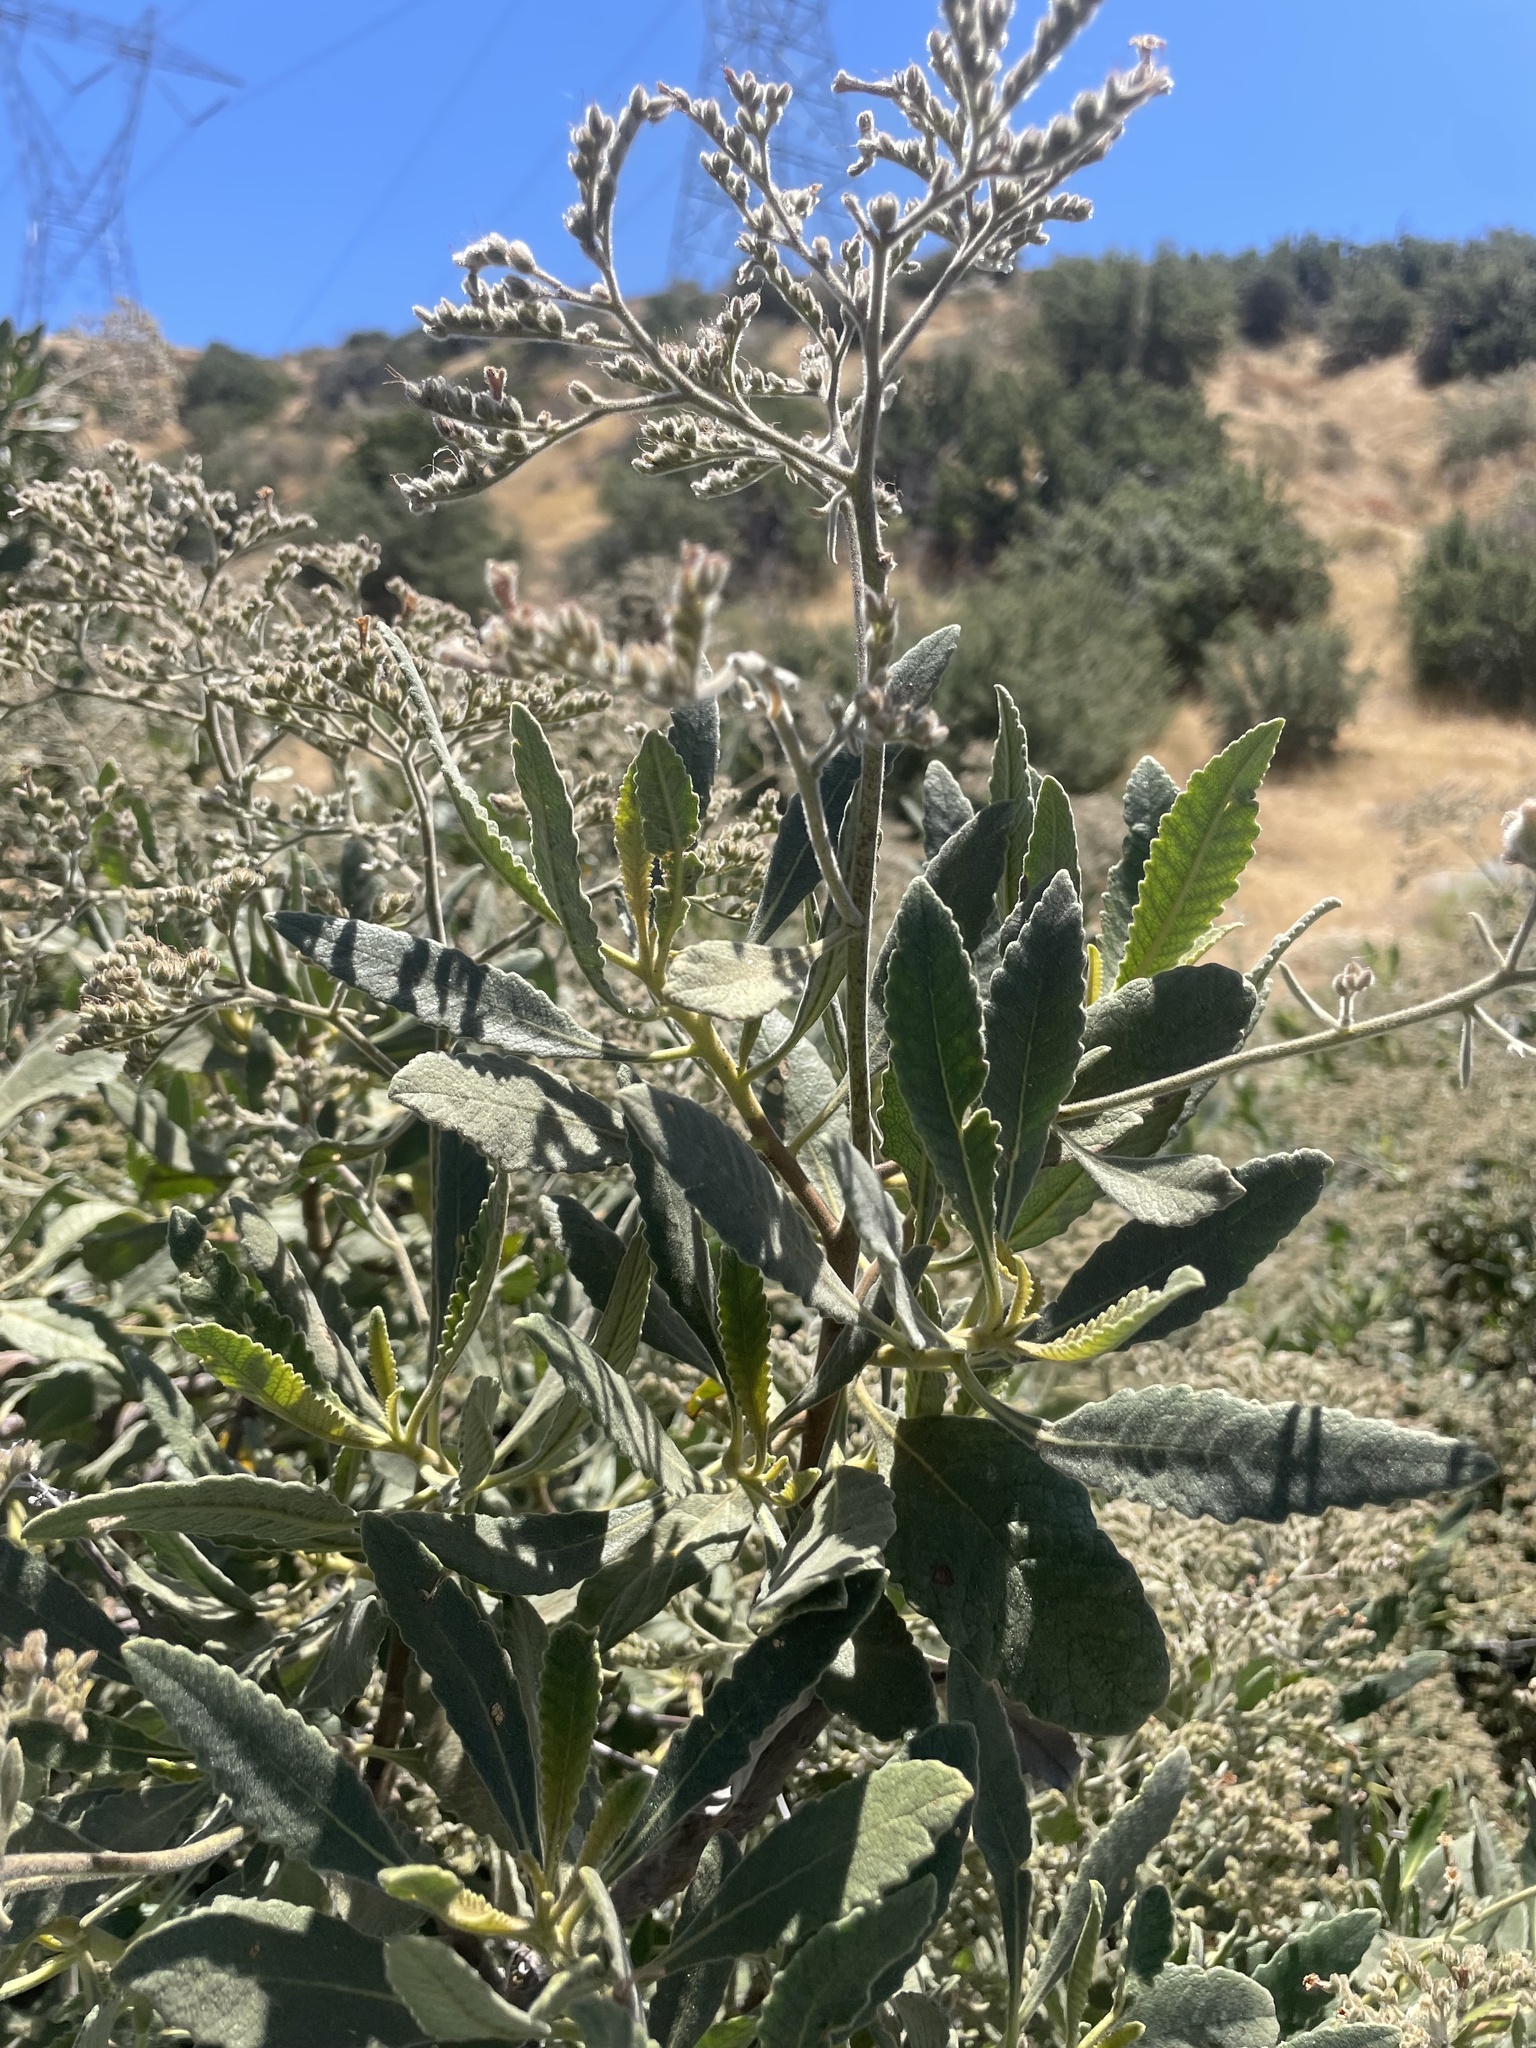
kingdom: Plantae
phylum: Tracheophyta
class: Magnoliopsida
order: Boraginales
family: Namaceae
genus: Eriodictyon
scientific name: Eriodictyon crassifolium
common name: Thick-leaf yerba-santa
